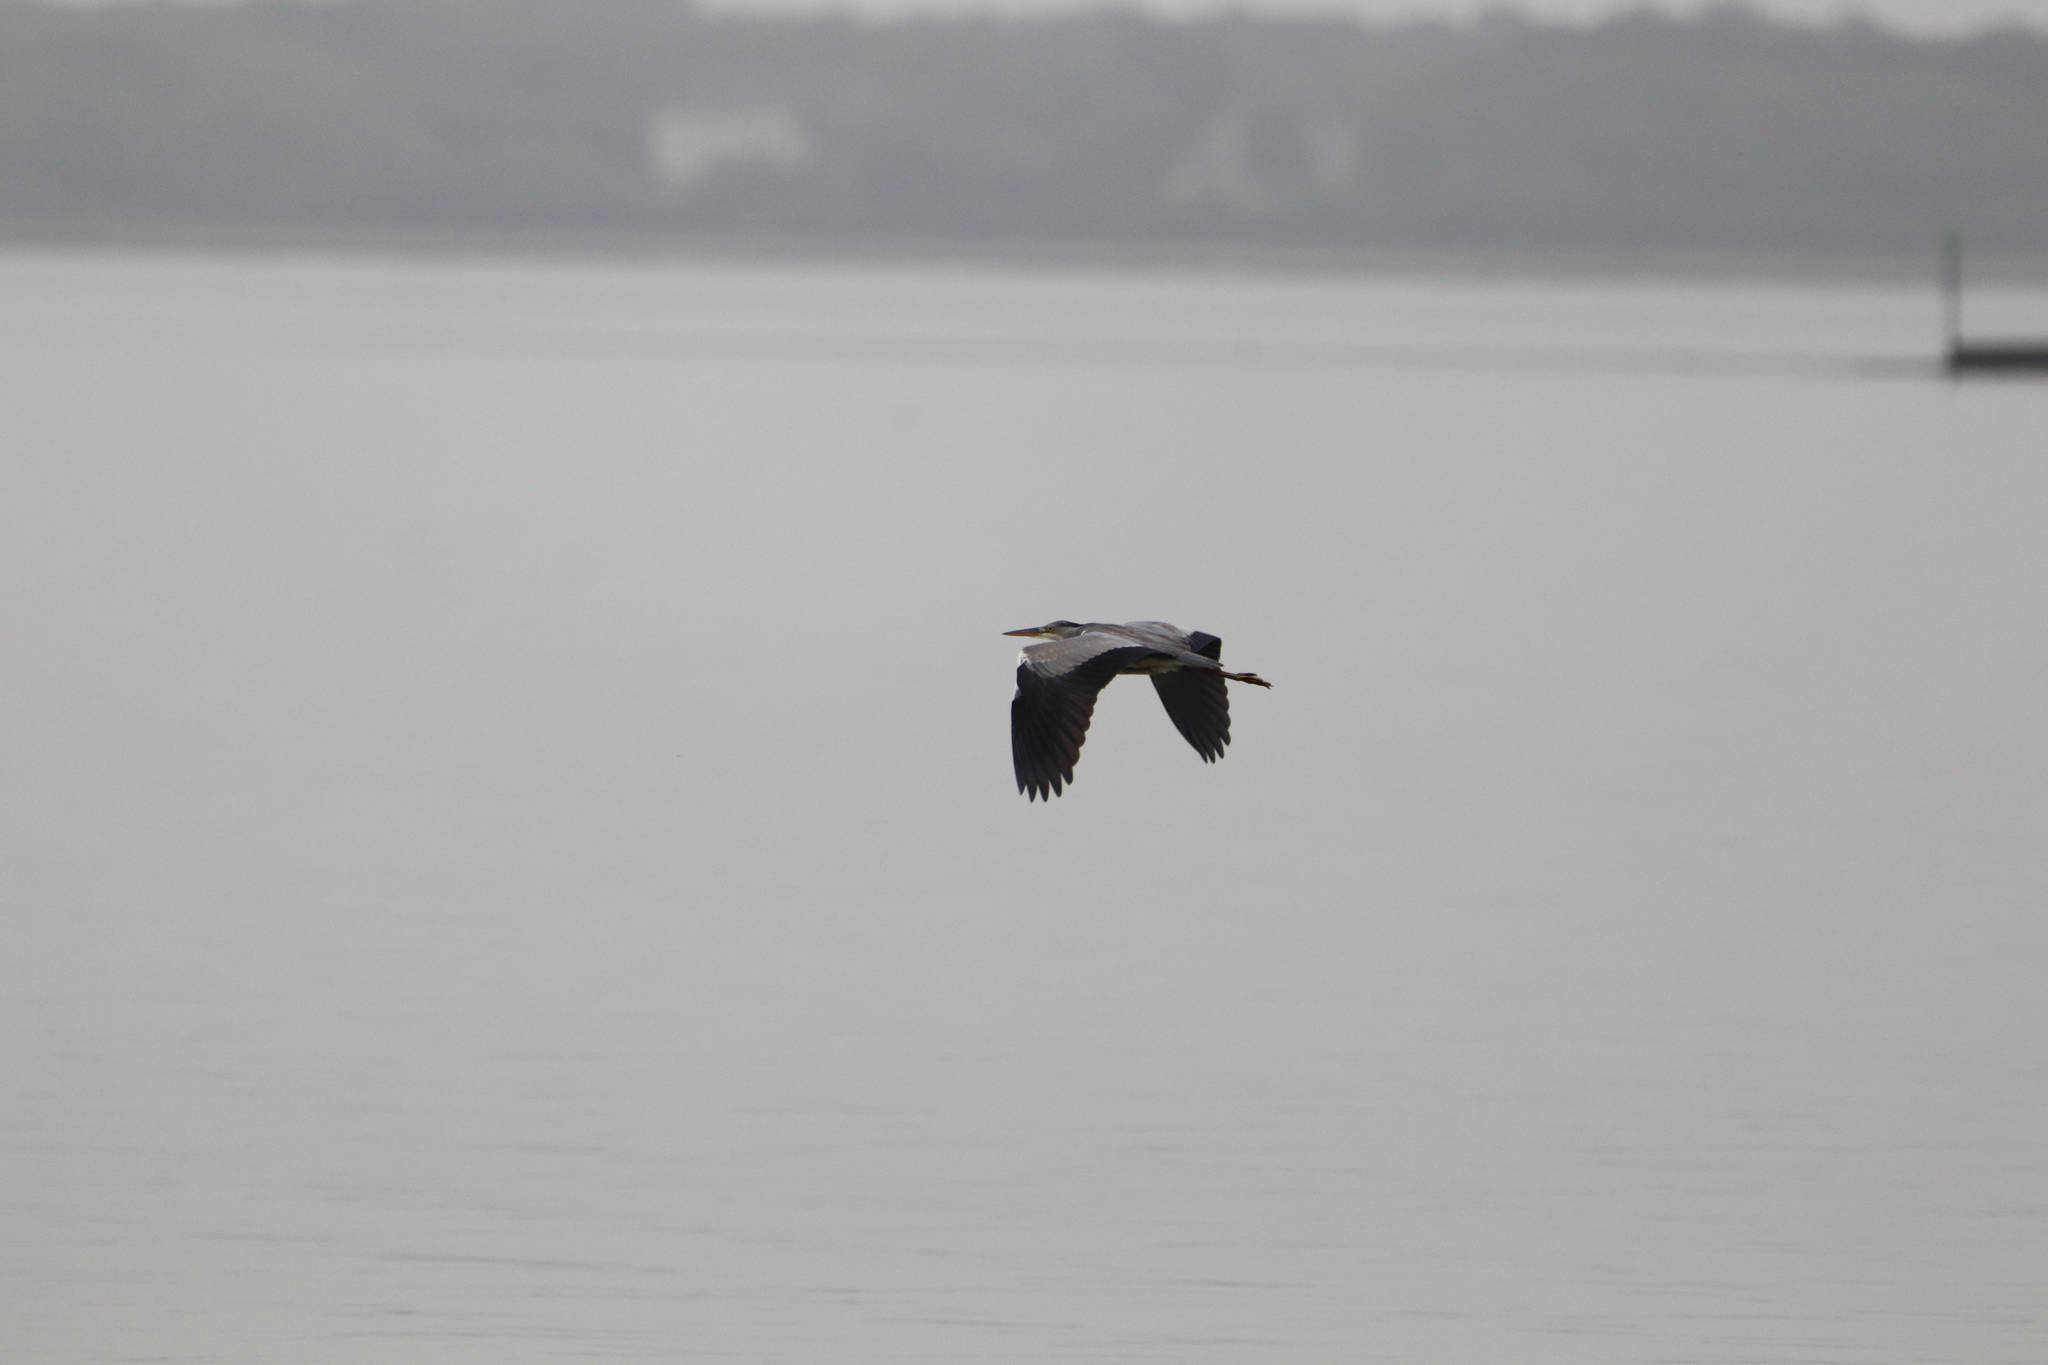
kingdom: Animalia
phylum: Chordata
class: Aves
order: Pelecaniformes
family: Ardeidae
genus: Ardea
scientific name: Ardea cinerea
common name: Grey heron
